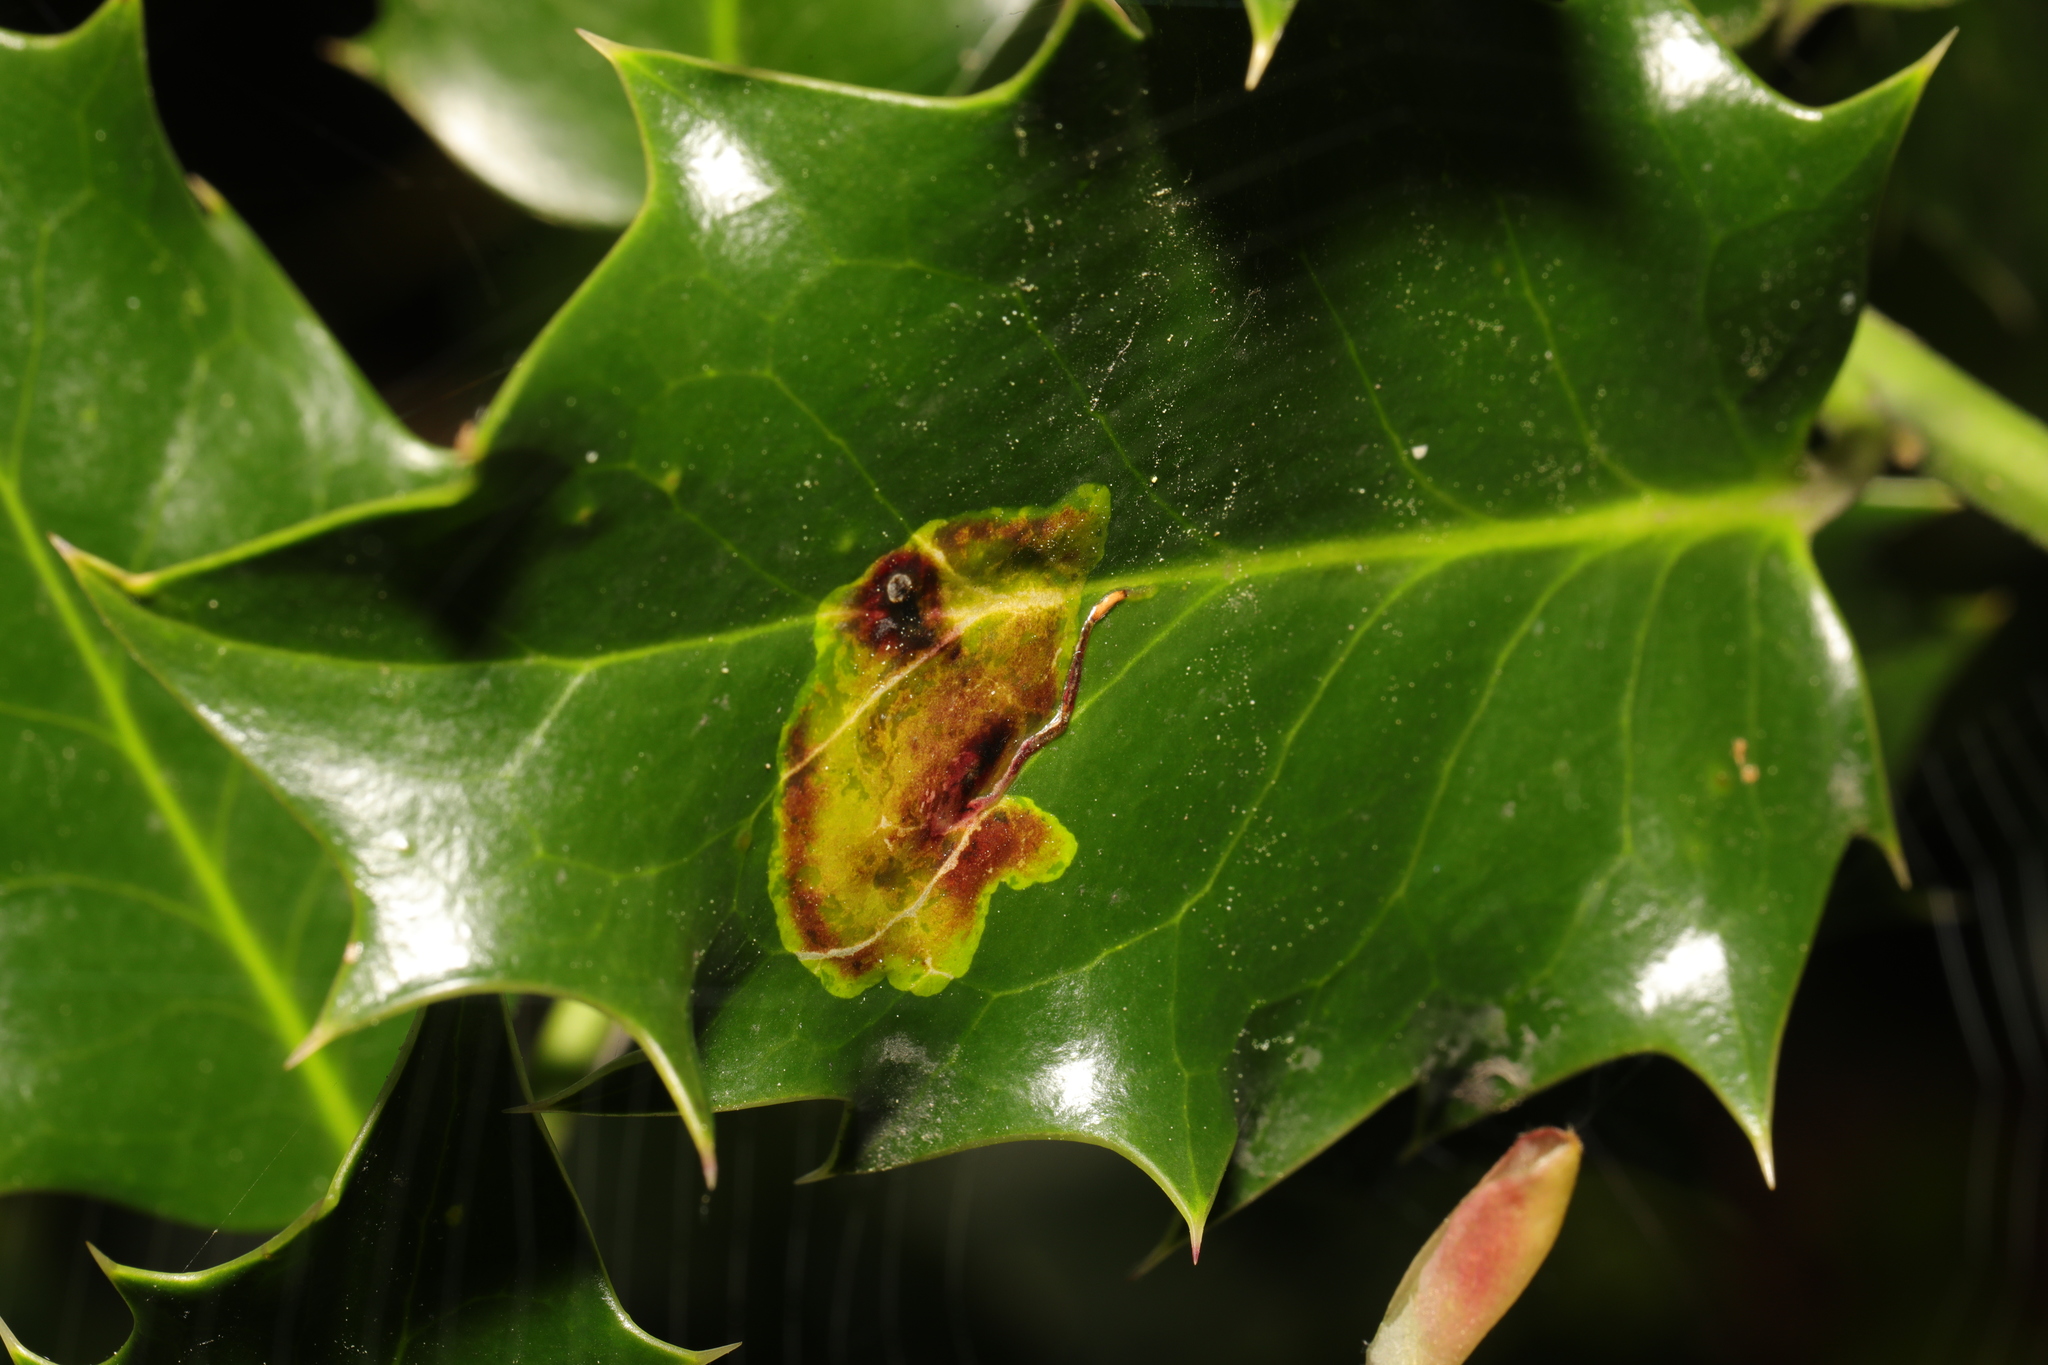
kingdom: Animalia
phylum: Arthropoda
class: Insecta
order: Diptera
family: Agromyzidae
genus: Phytomyza
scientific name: Phytomyza ilicis
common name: Holly leafminer
